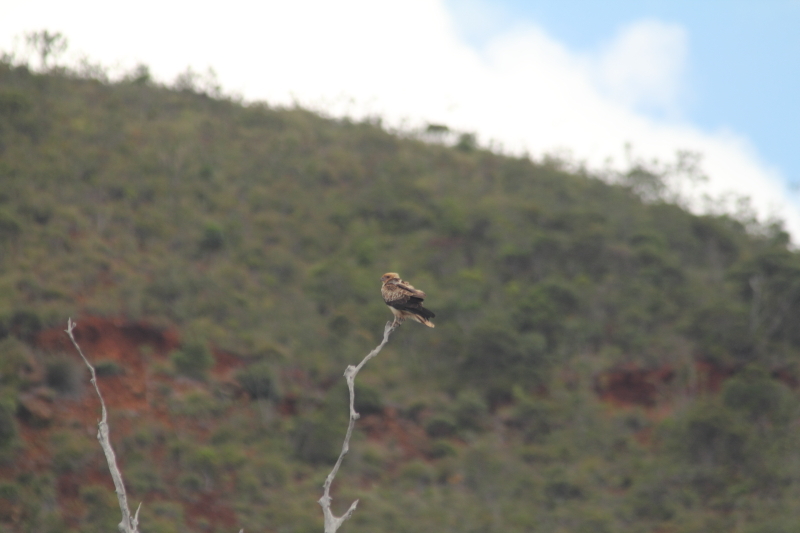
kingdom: Animalia
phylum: Chordata
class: Aves
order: Accipitriformes
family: Accipitridae
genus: Haliastur
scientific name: Haliastur sphenurus
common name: Whistling kite
